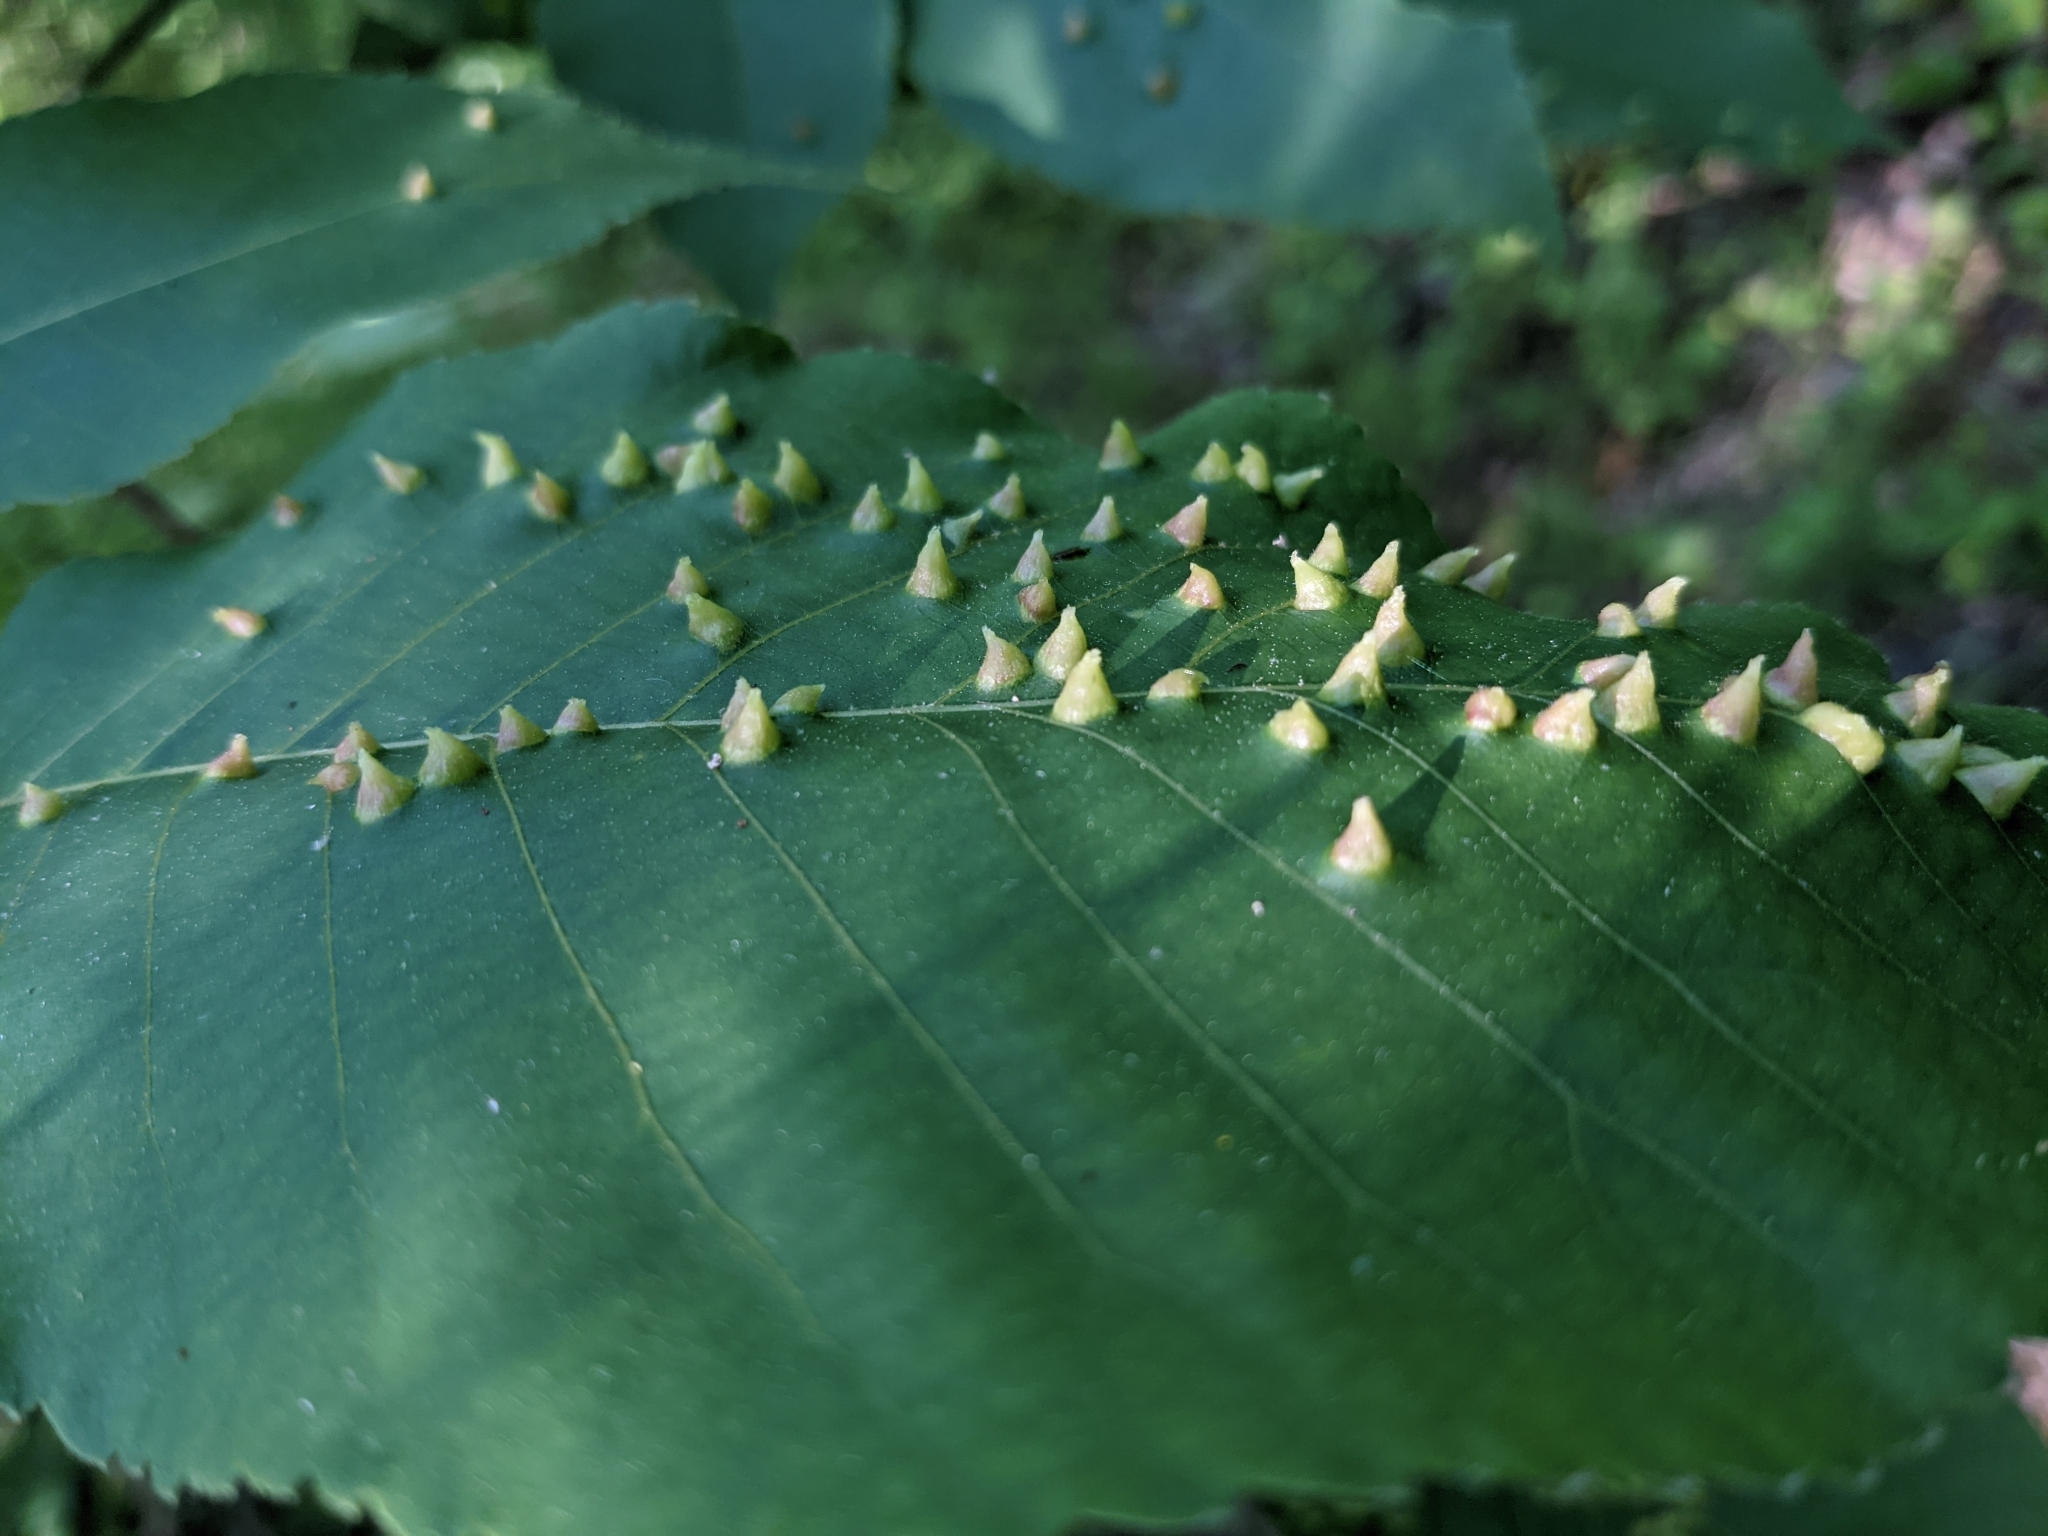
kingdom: Animalia
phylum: Arthropoda
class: Insecta
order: Hemiptera
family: Phylloxeridae
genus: Phylloxera
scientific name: Phylloxera caryaefallax
